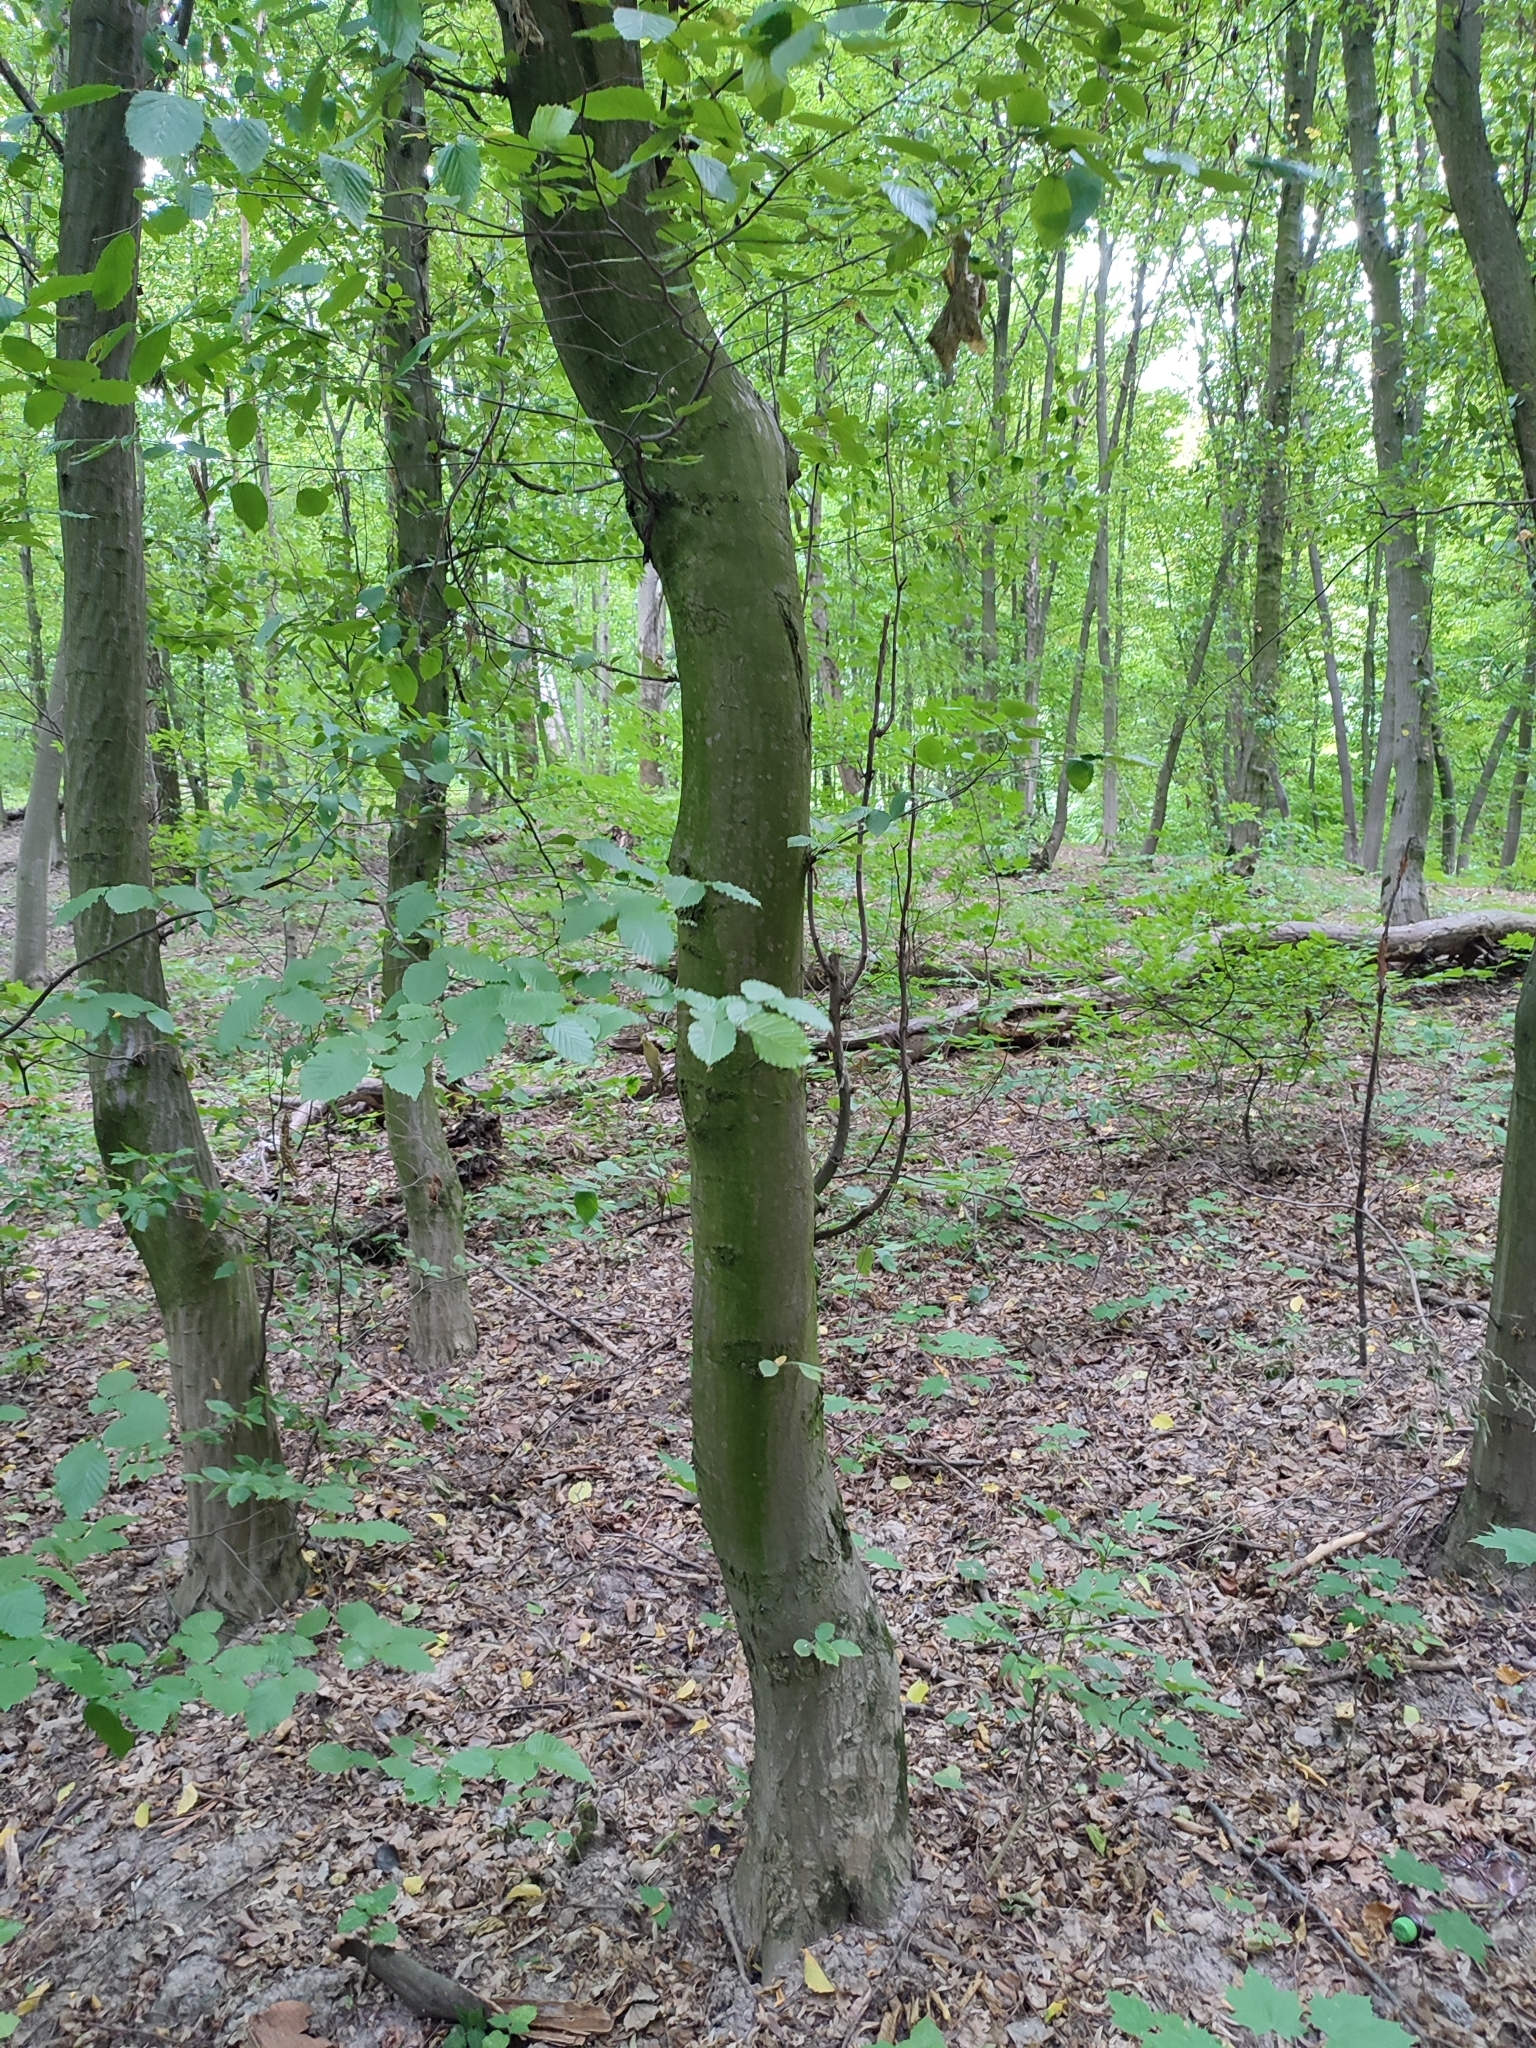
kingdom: Plantae
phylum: Tracheophyta
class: Magnoliopsida
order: Fagales
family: Betulaceae
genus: Carpinus
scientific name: Carpinus betulus
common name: Hornbeam
